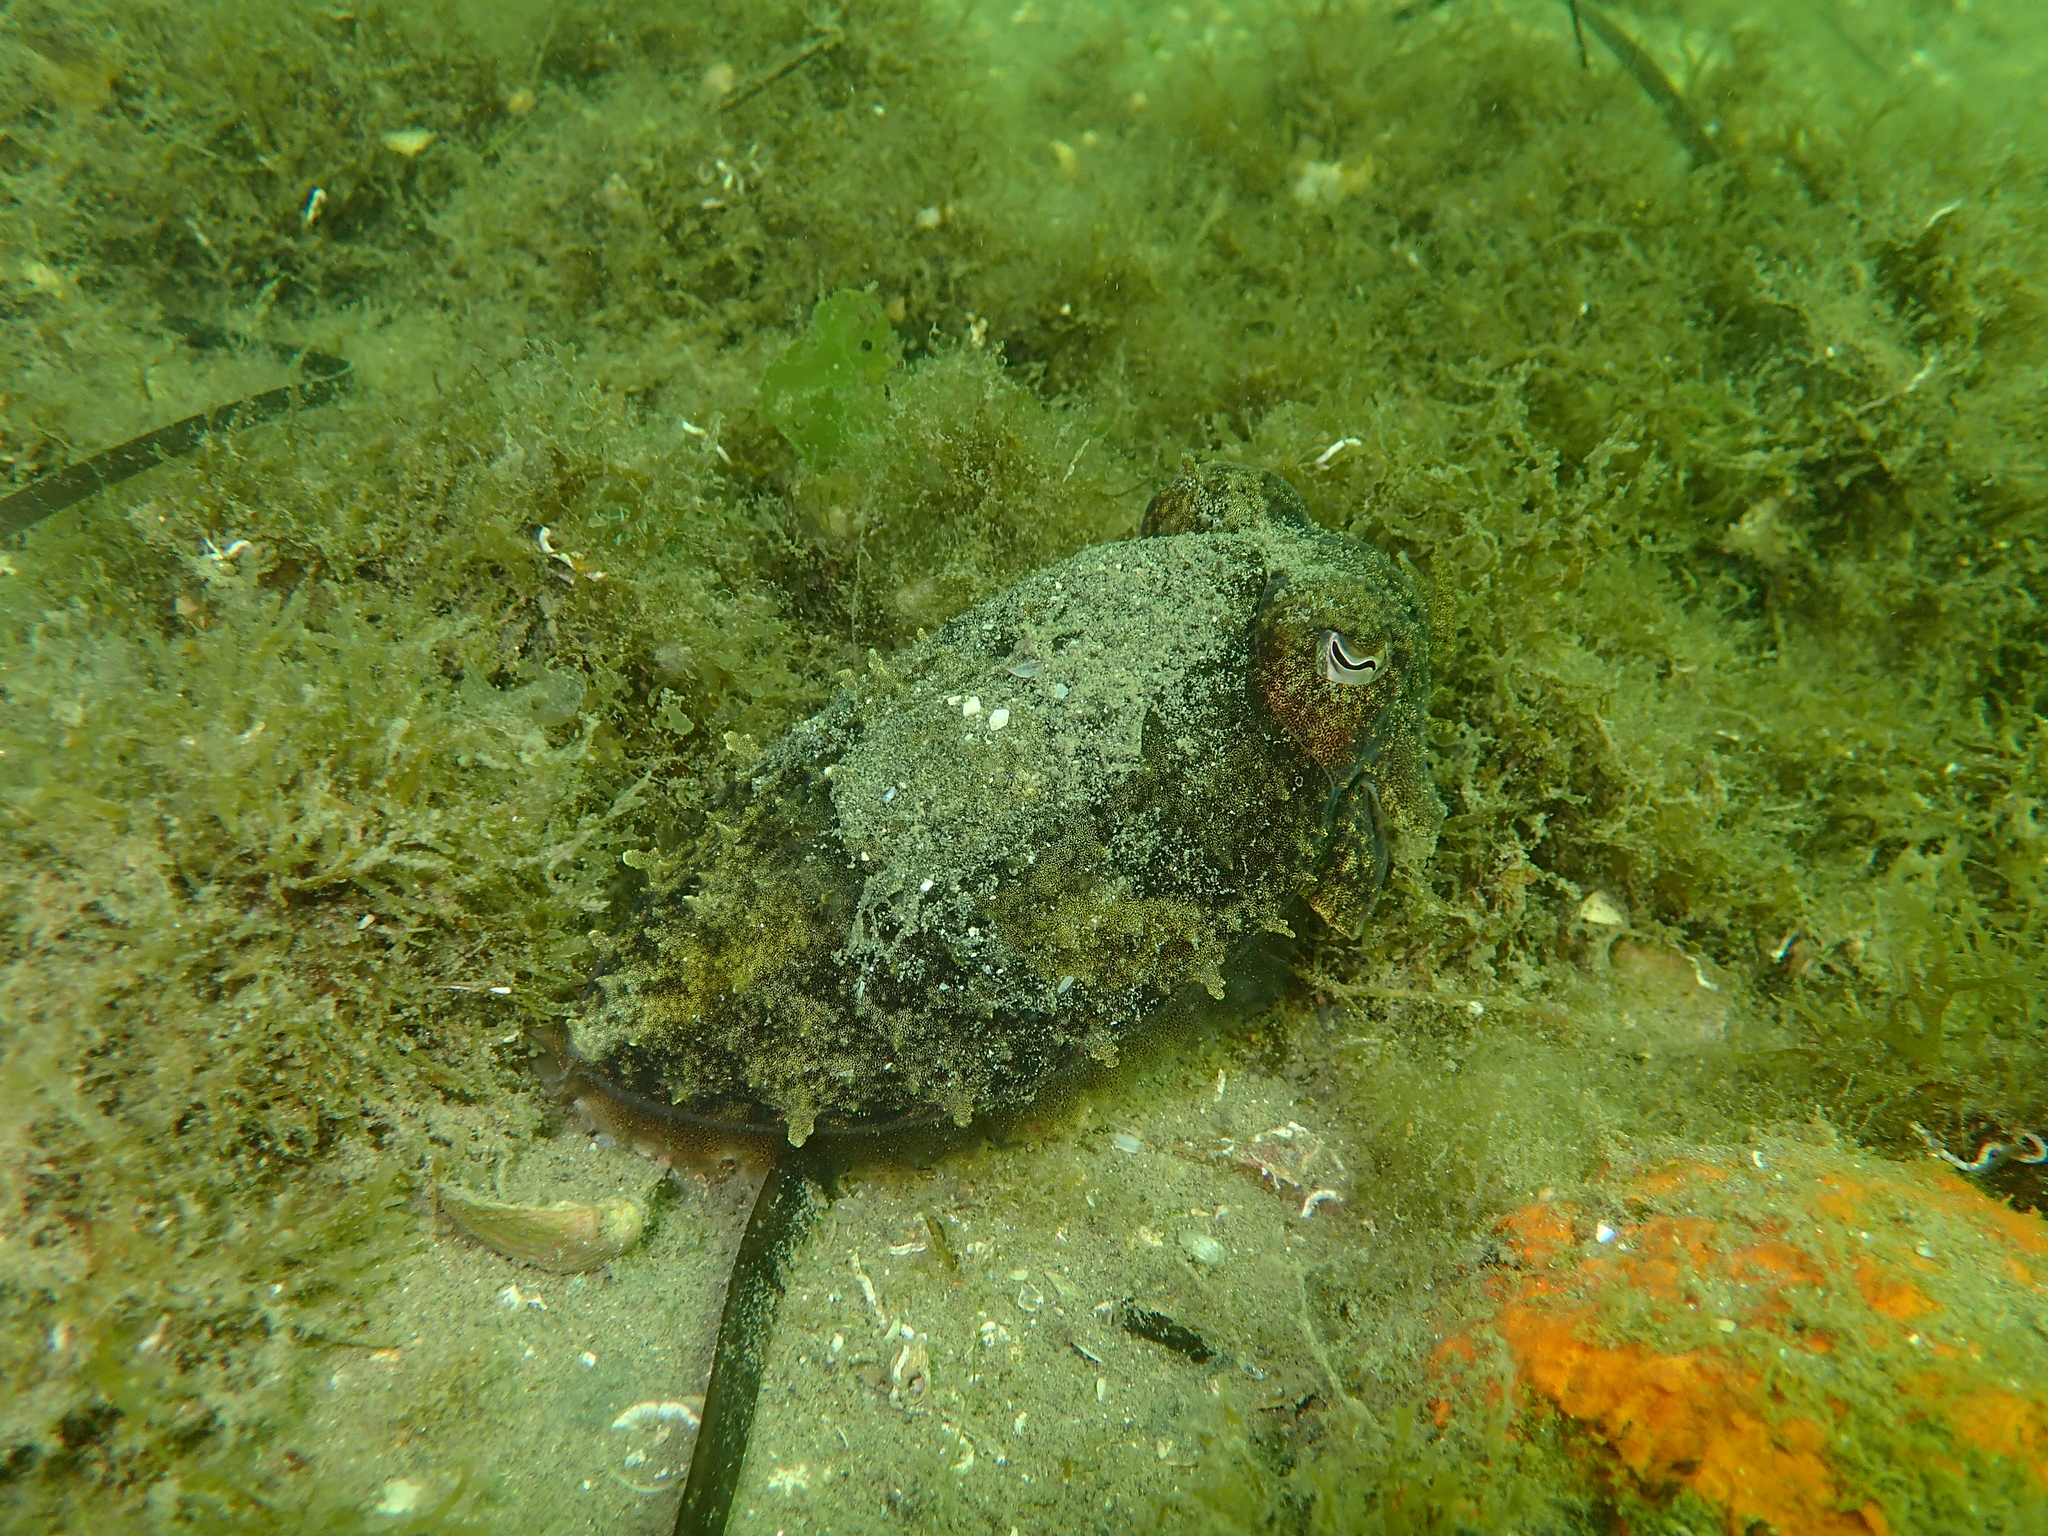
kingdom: Animalia
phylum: Mollusca
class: Cephalopoda
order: Sepiida
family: Sepiidae
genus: Sepia
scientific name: Sepia officinalis
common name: Common cuttlefish
